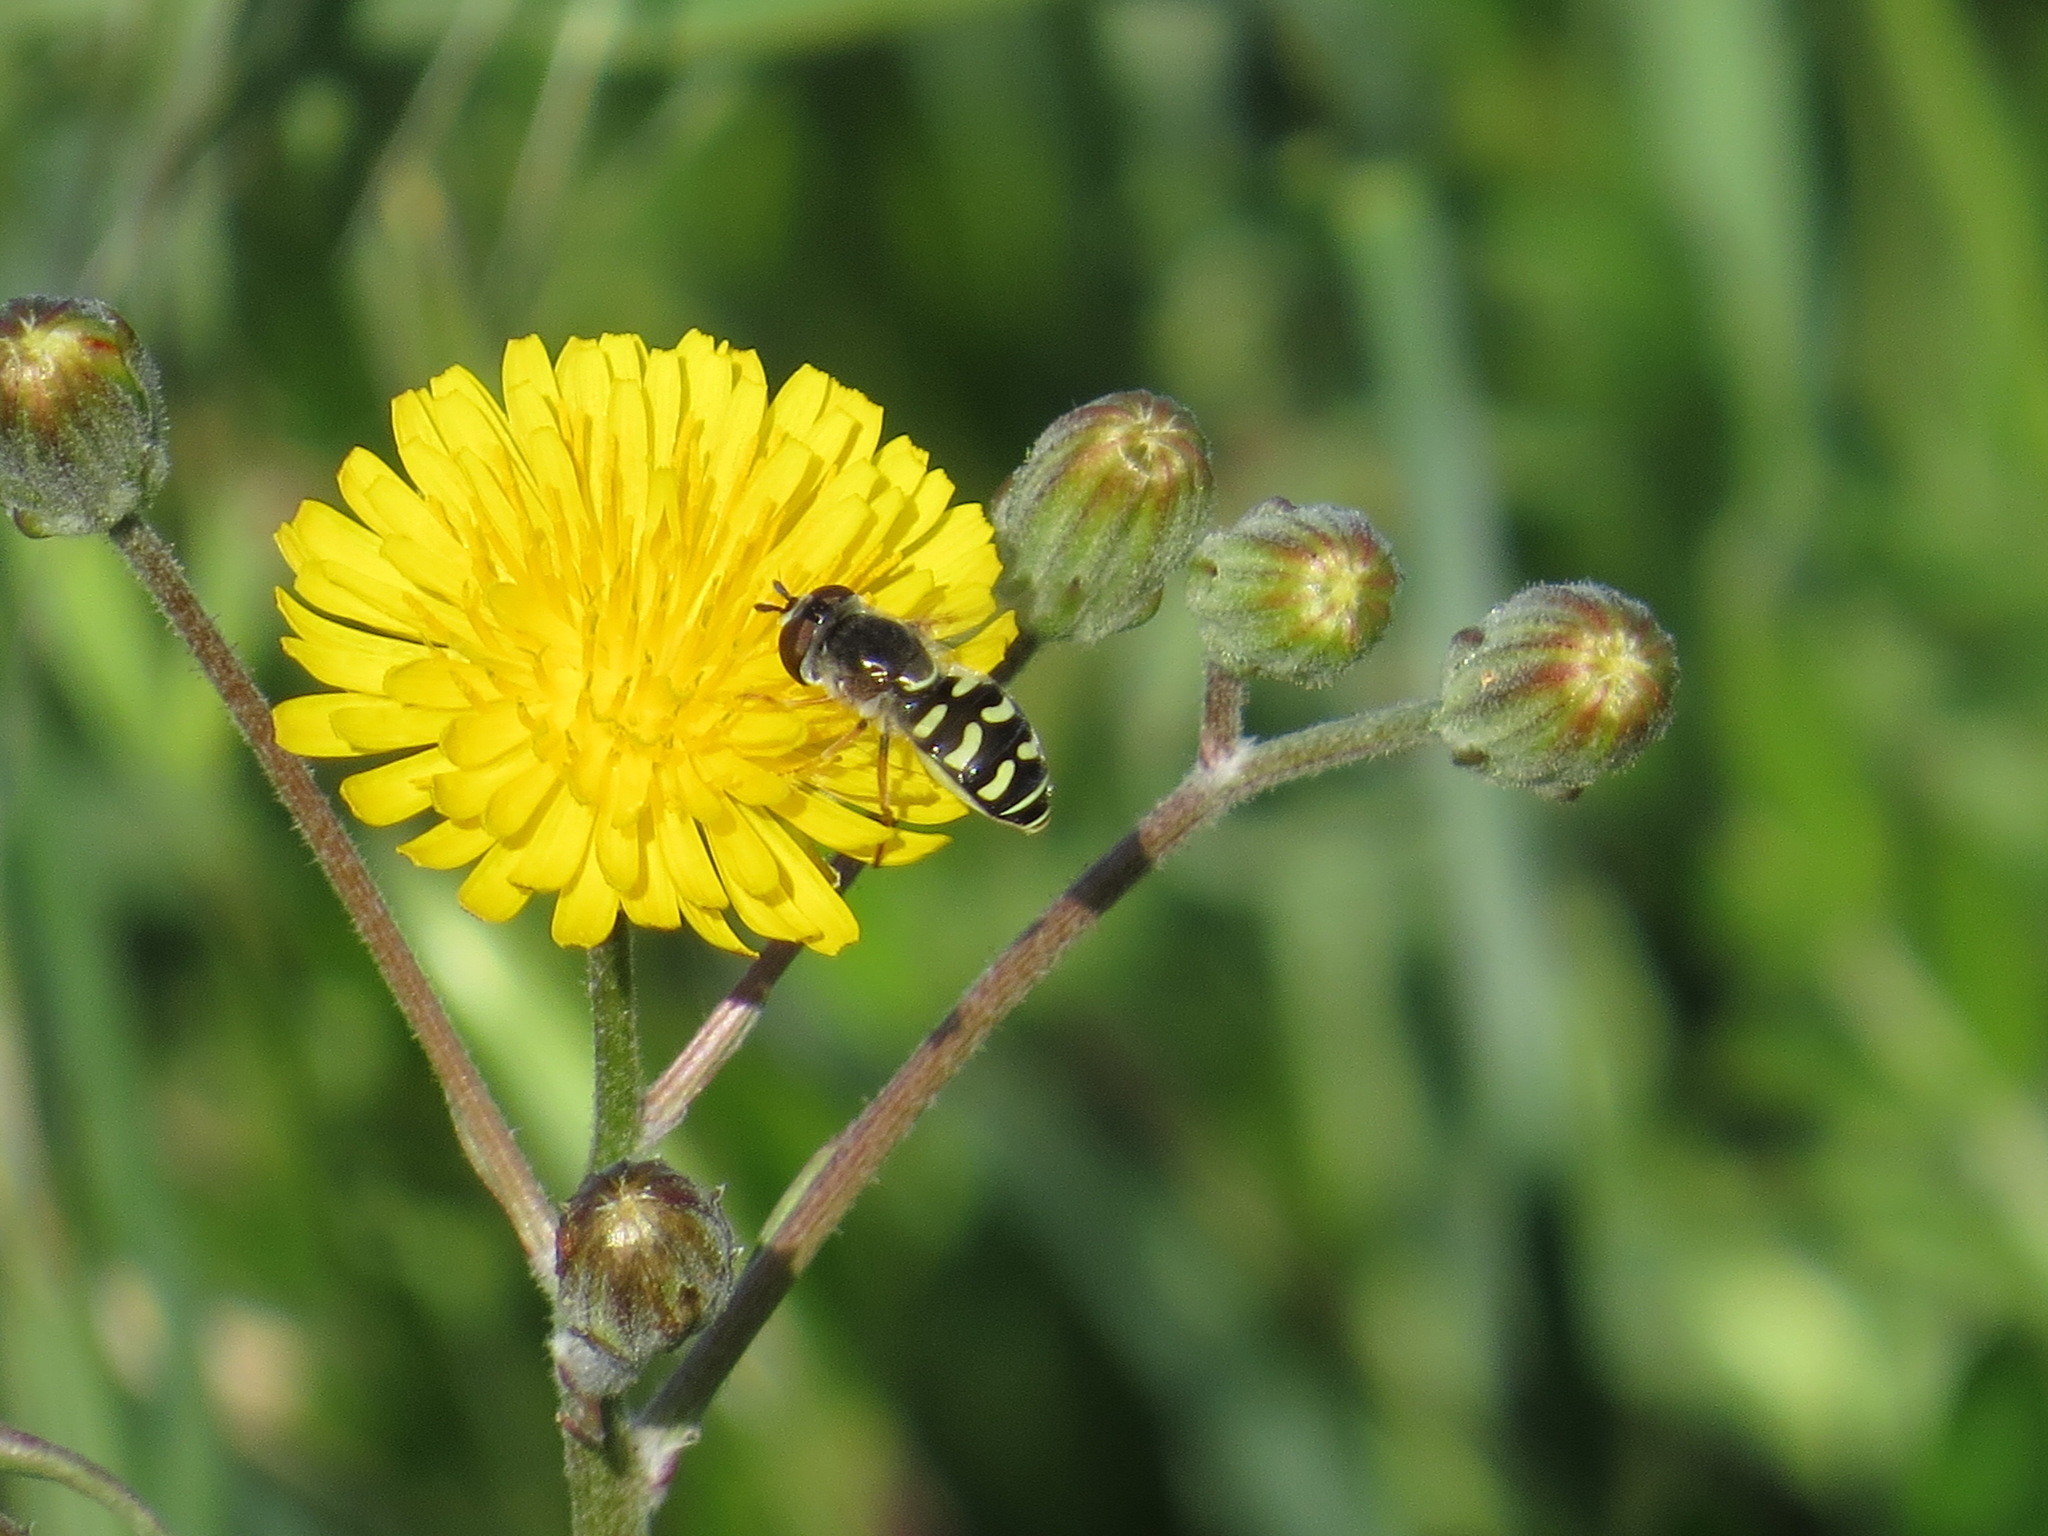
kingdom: Animalia
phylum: Arthropoda
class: Insecta
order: Diptera
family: Syrphidae
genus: Eupeodes
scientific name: Eupeodes volucris
